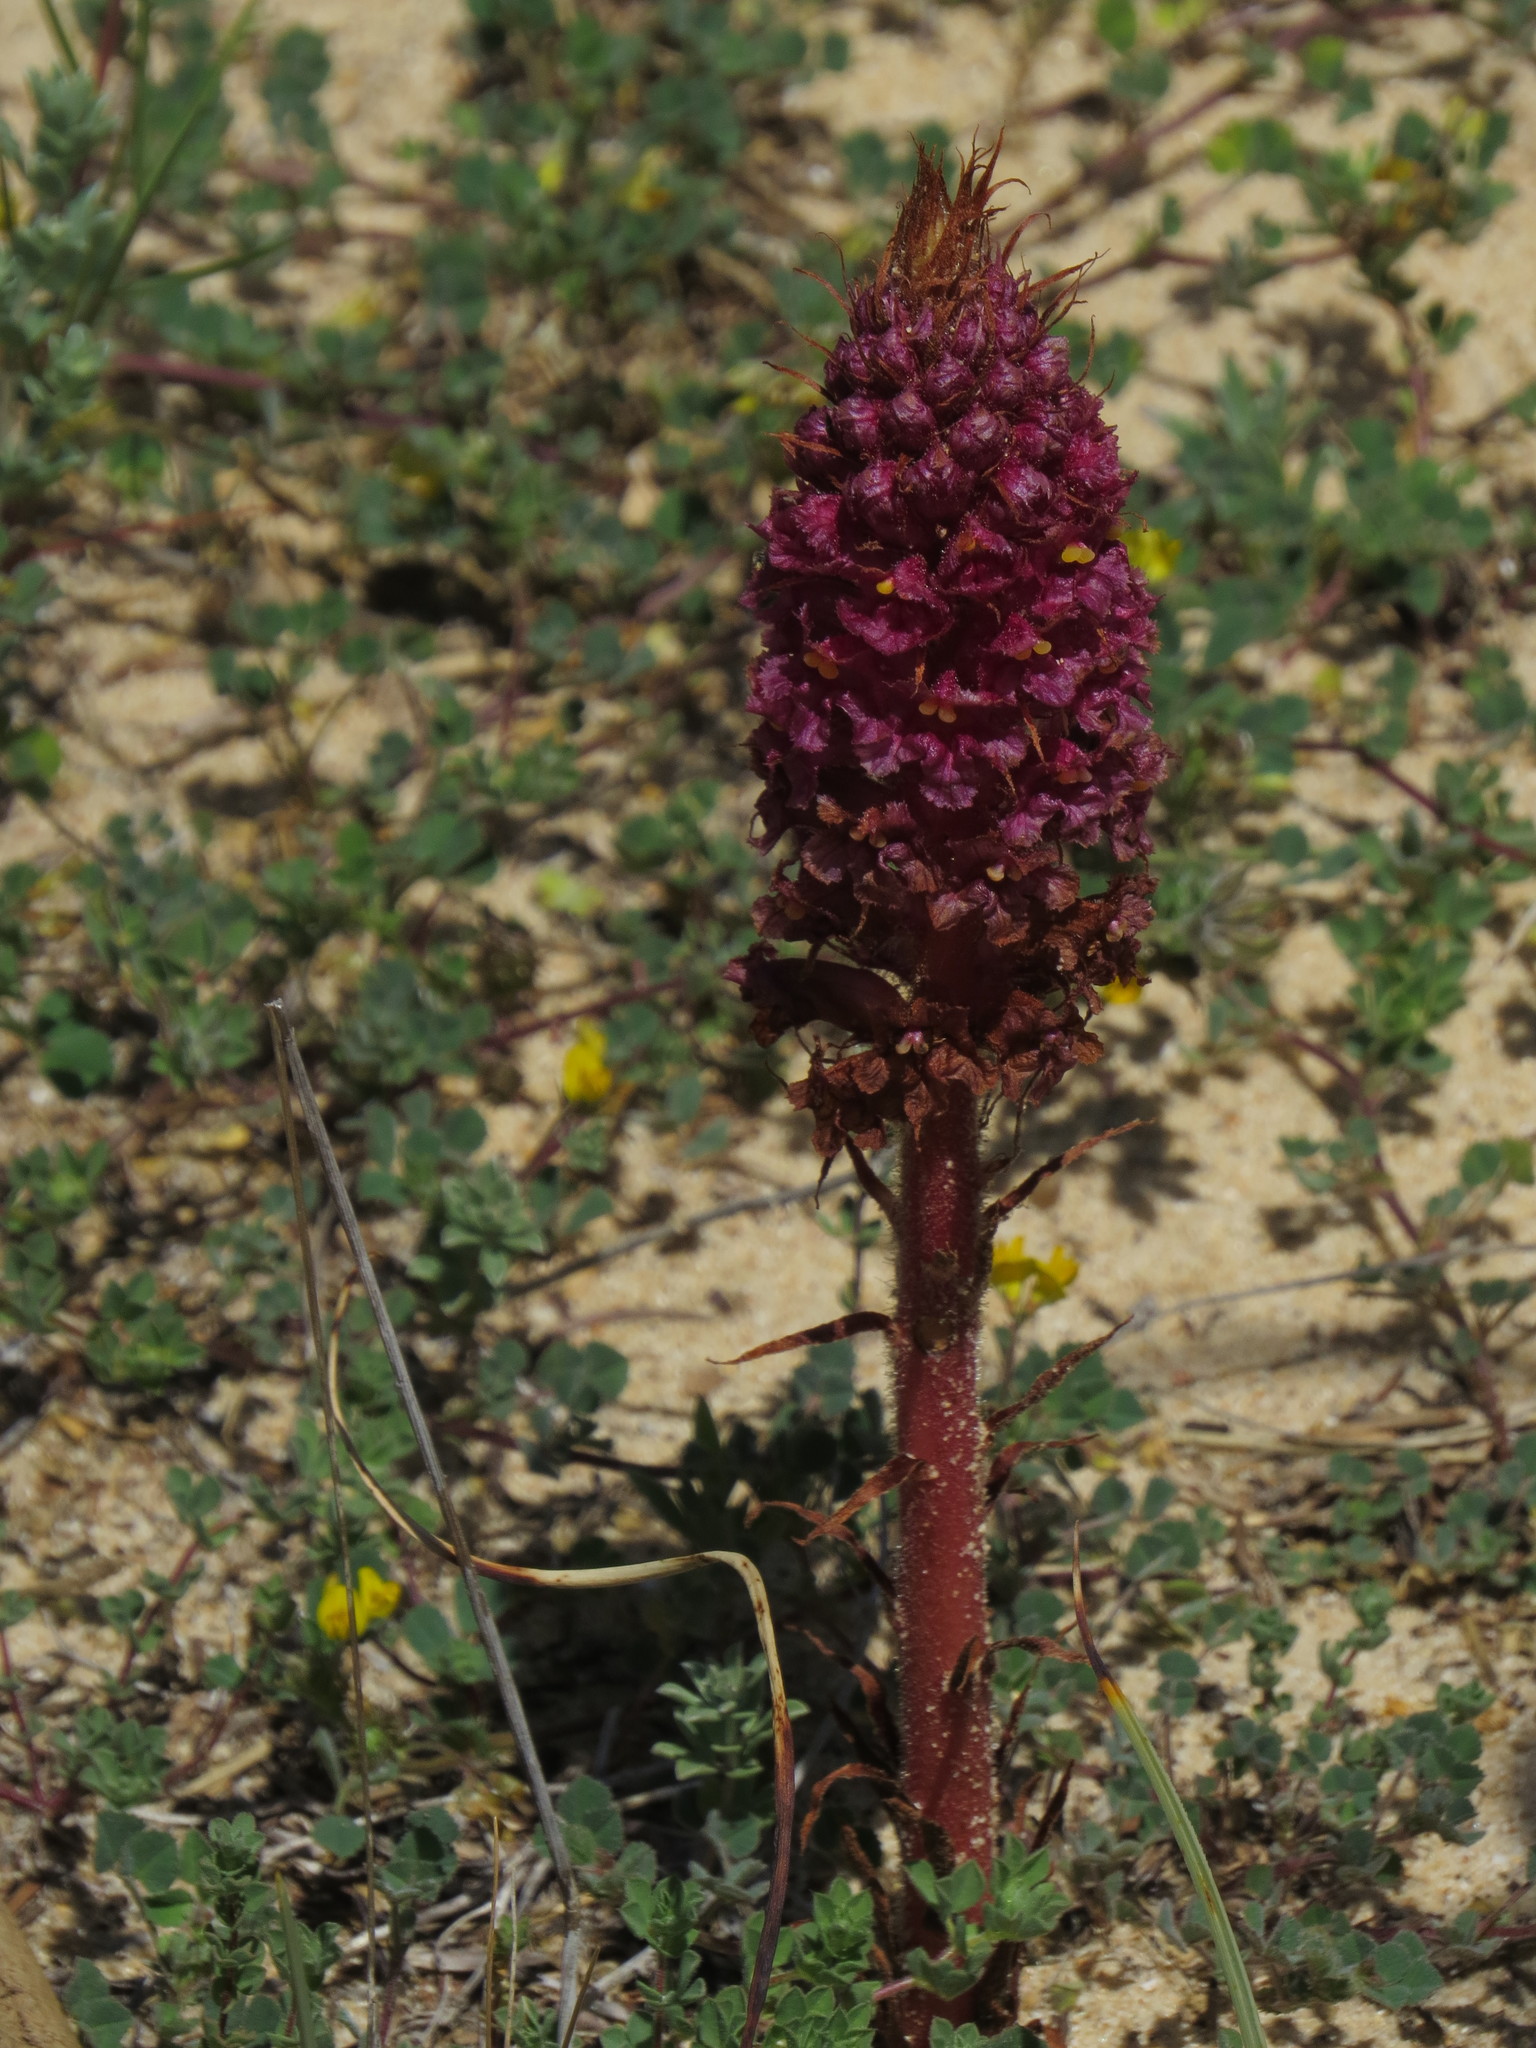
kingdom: Plantae
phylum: Tracheophyta
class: Magnoliopsida
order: Lamiales
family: Orobanchaceae
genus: Orobanche
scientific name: Orobanche densiflora
